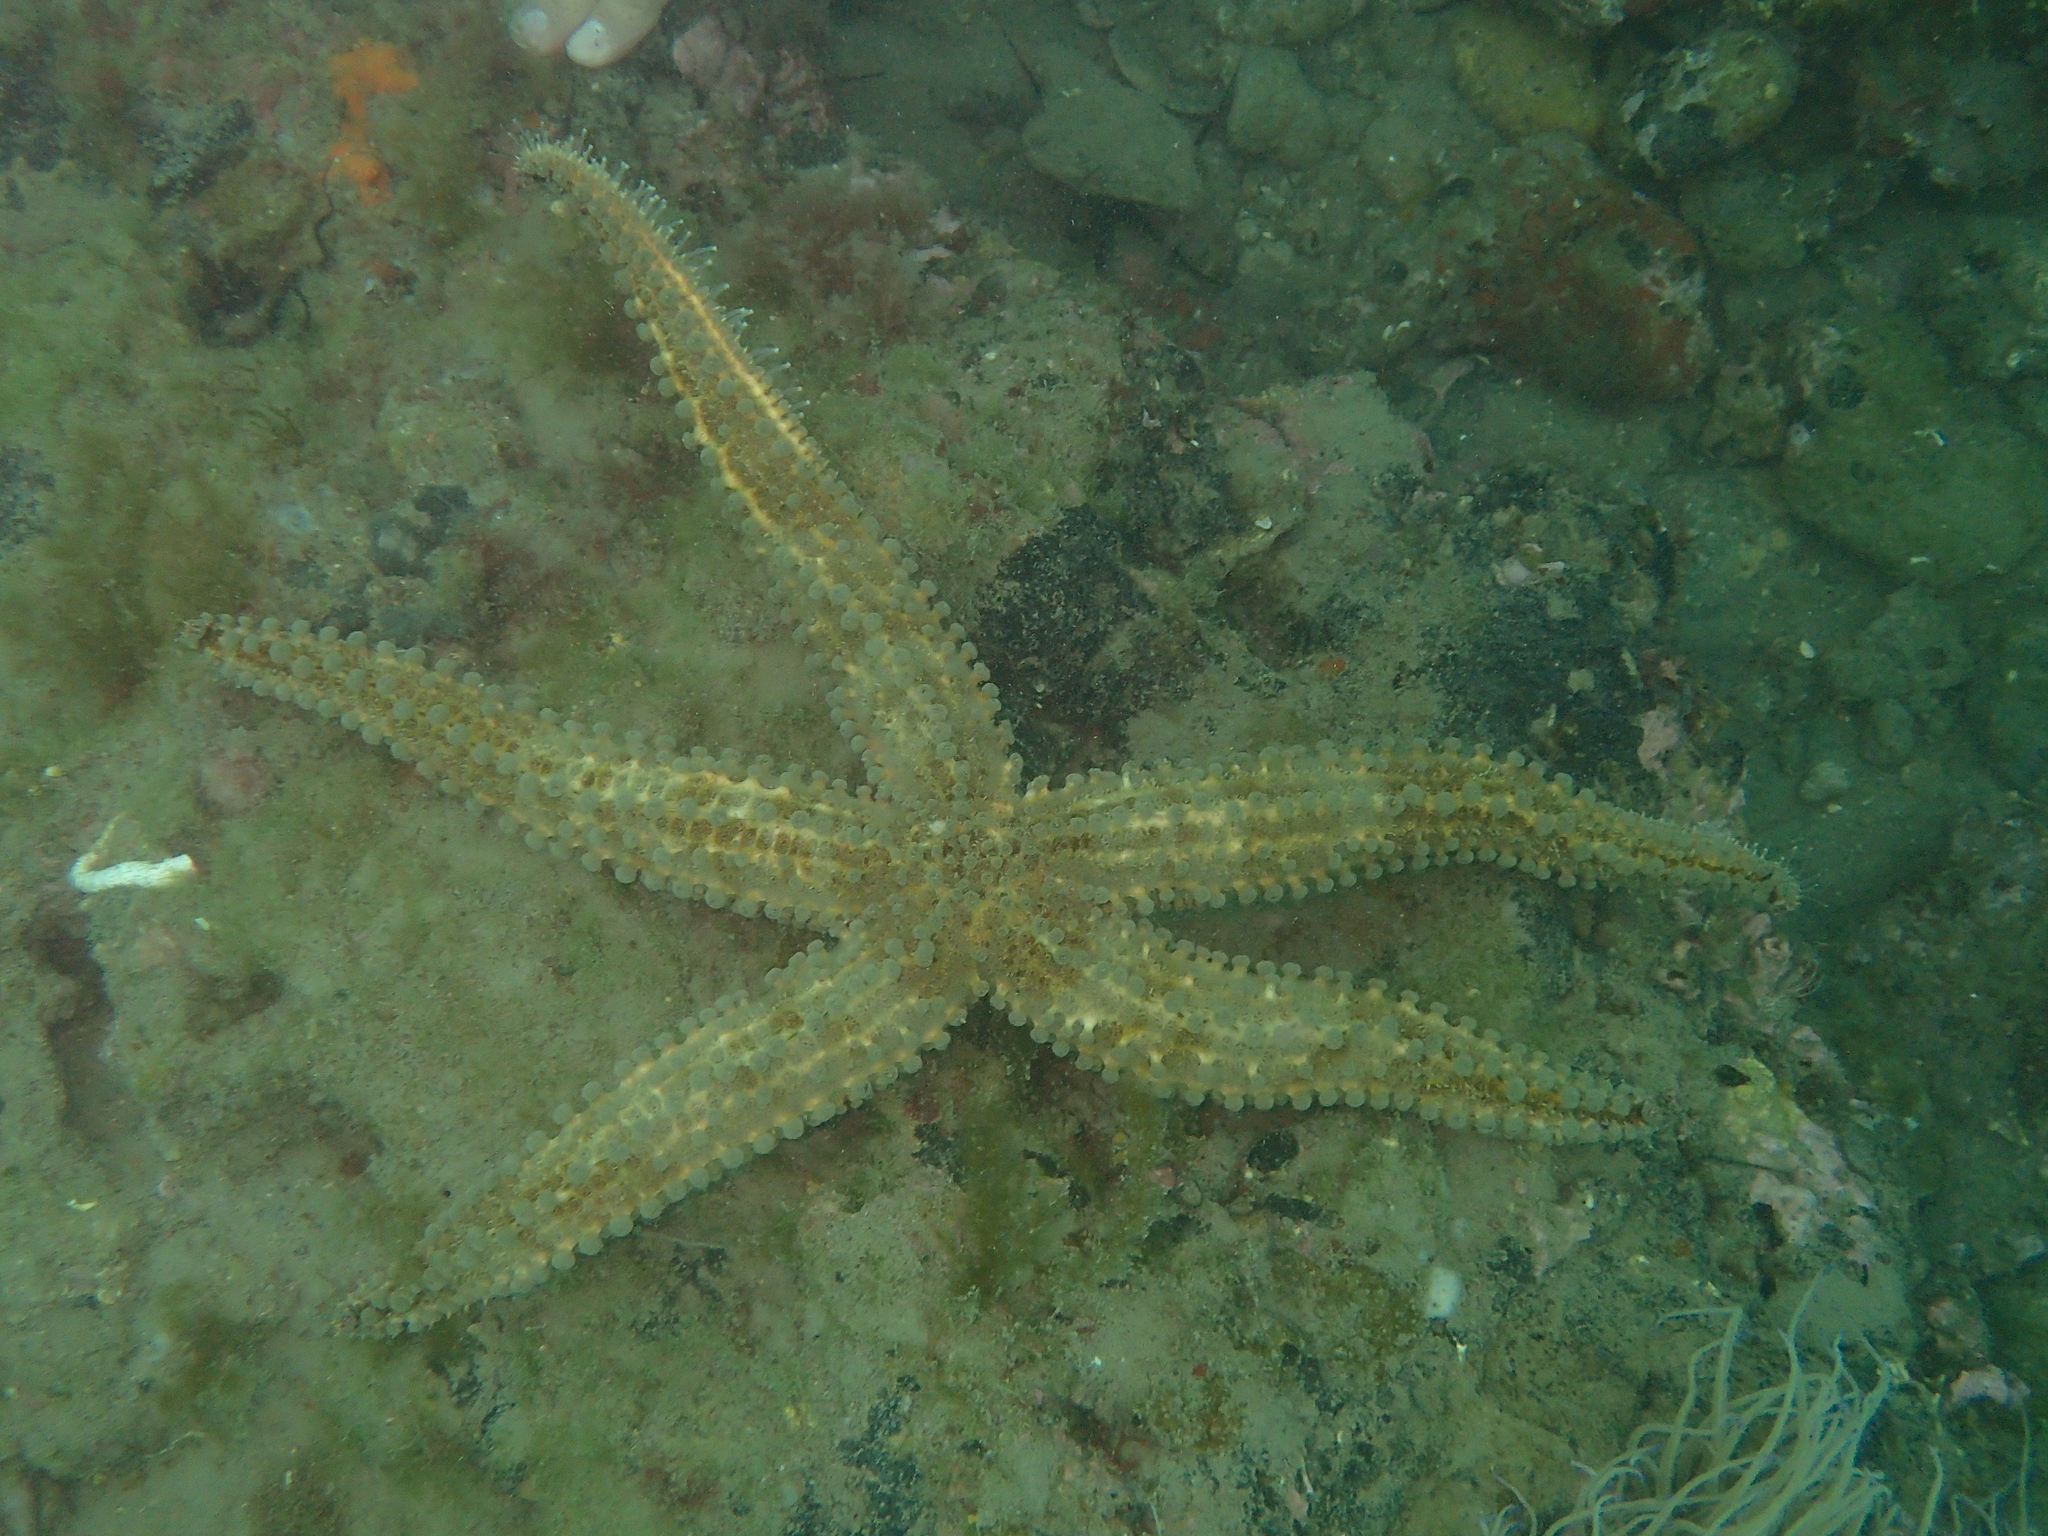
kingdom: Animalia
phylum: Echinodermata
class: Asteroidea
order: Forcipulatida
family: Asteriidae
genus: Marthasterias
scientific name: Marthasterias glacialis
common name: Spiny starfish
